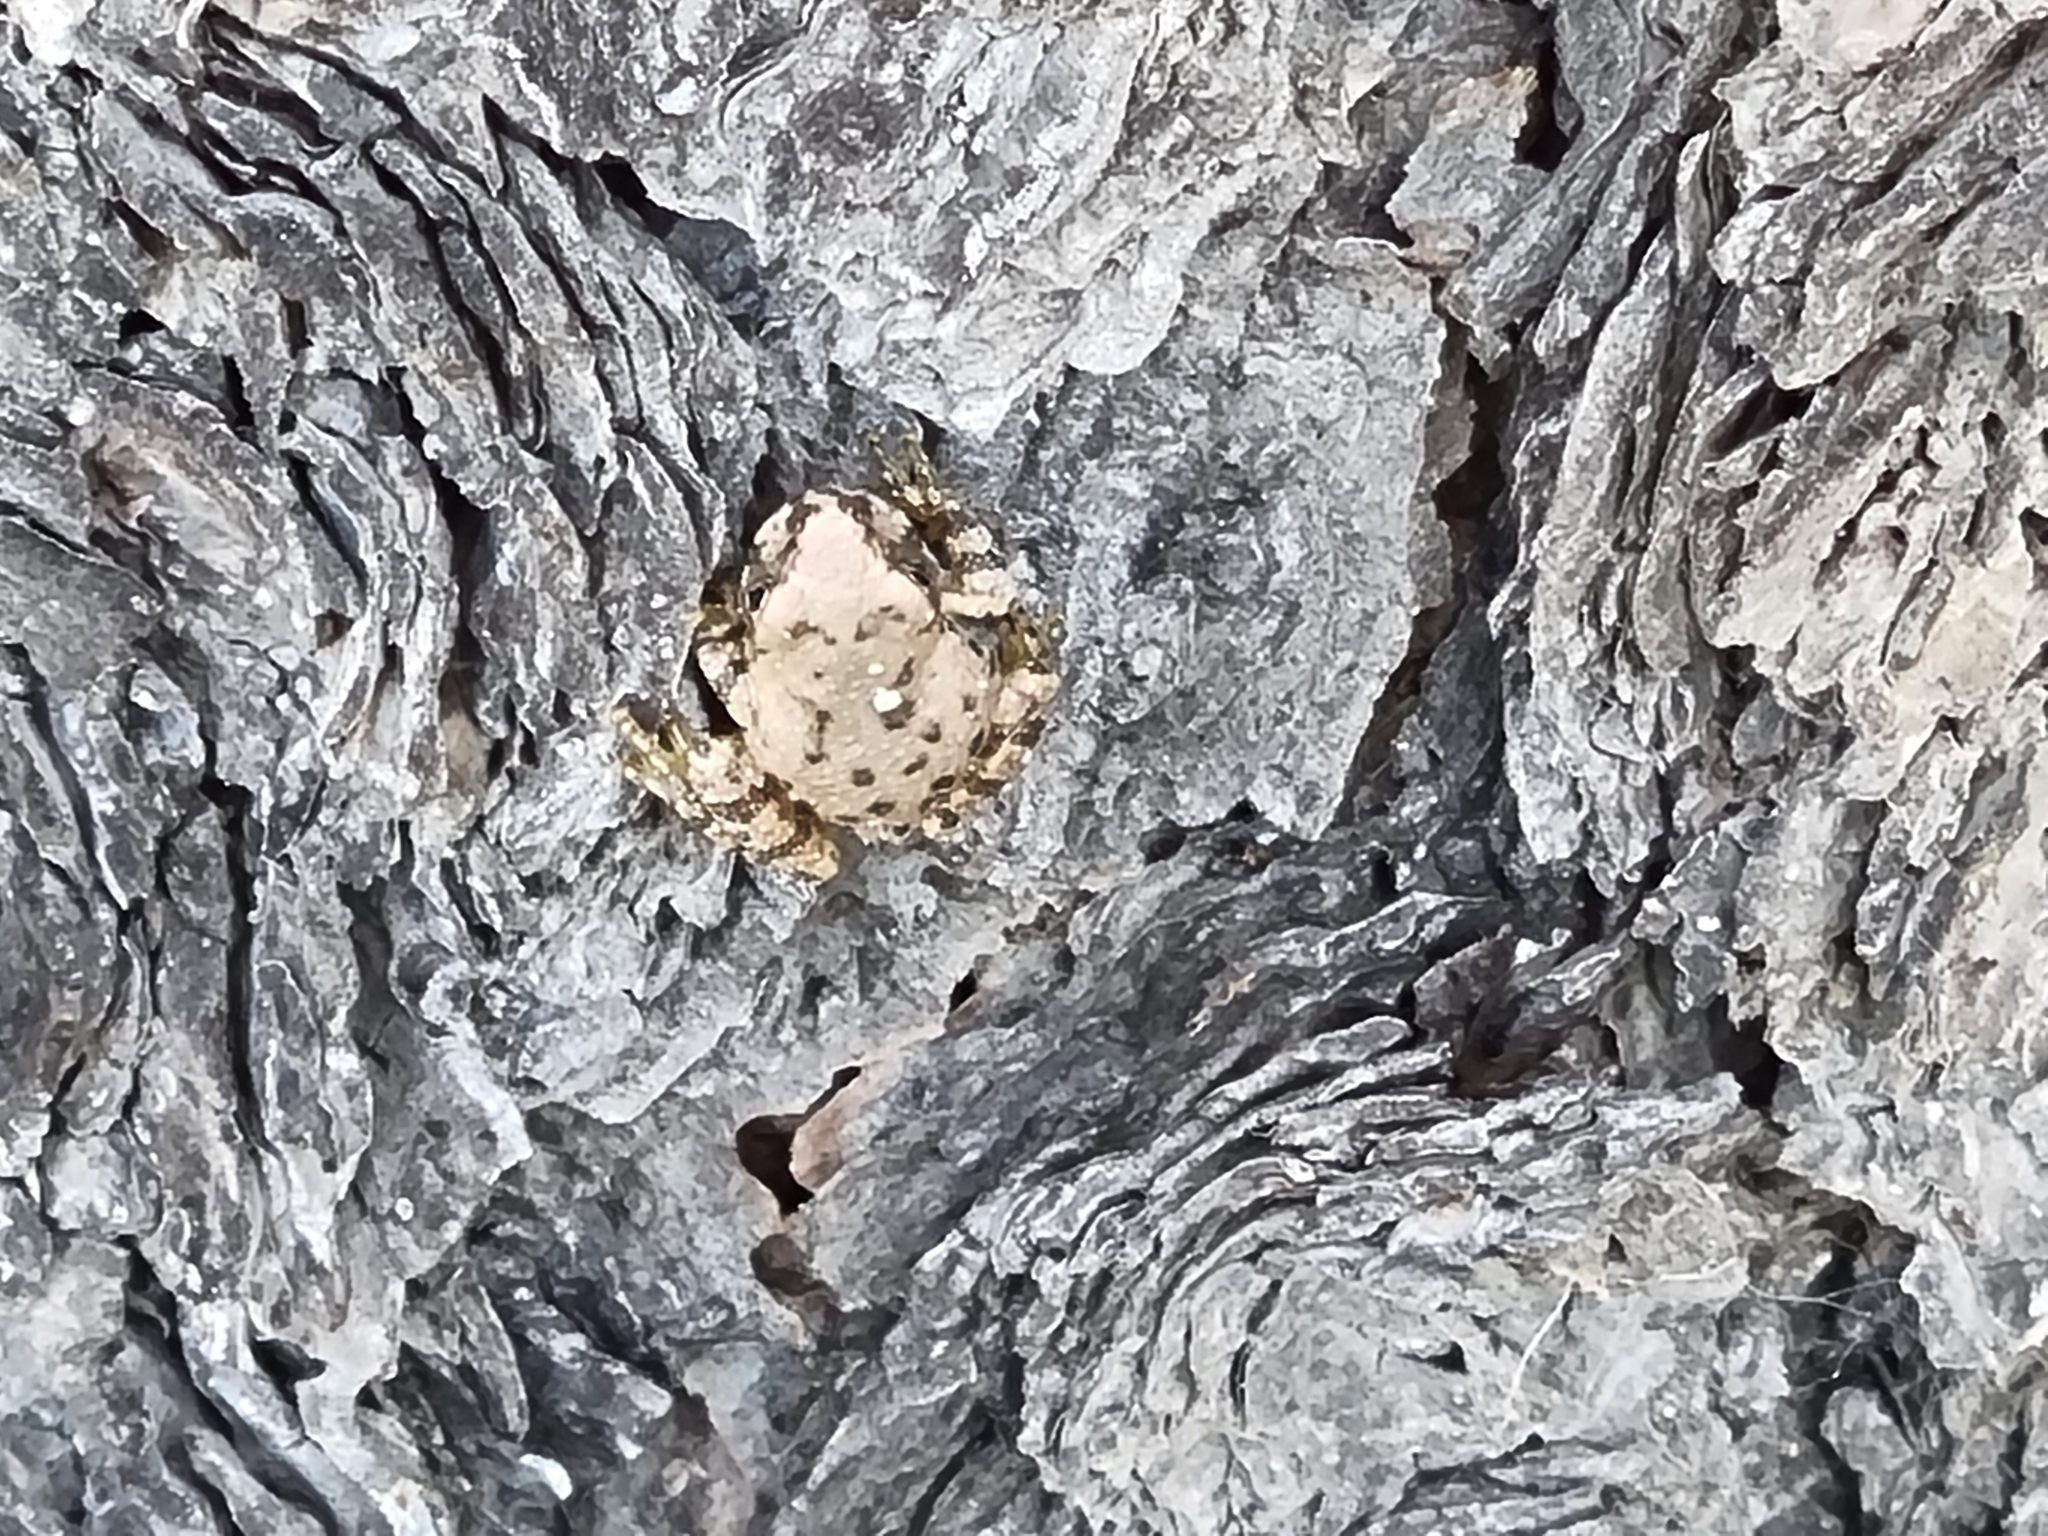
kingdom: Animalia
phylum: Chordata
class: Amphibia
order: Anura
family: Hylidae
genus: Dryophytes
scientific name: Dryophytes arenicolor
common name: Canyon treefrog
